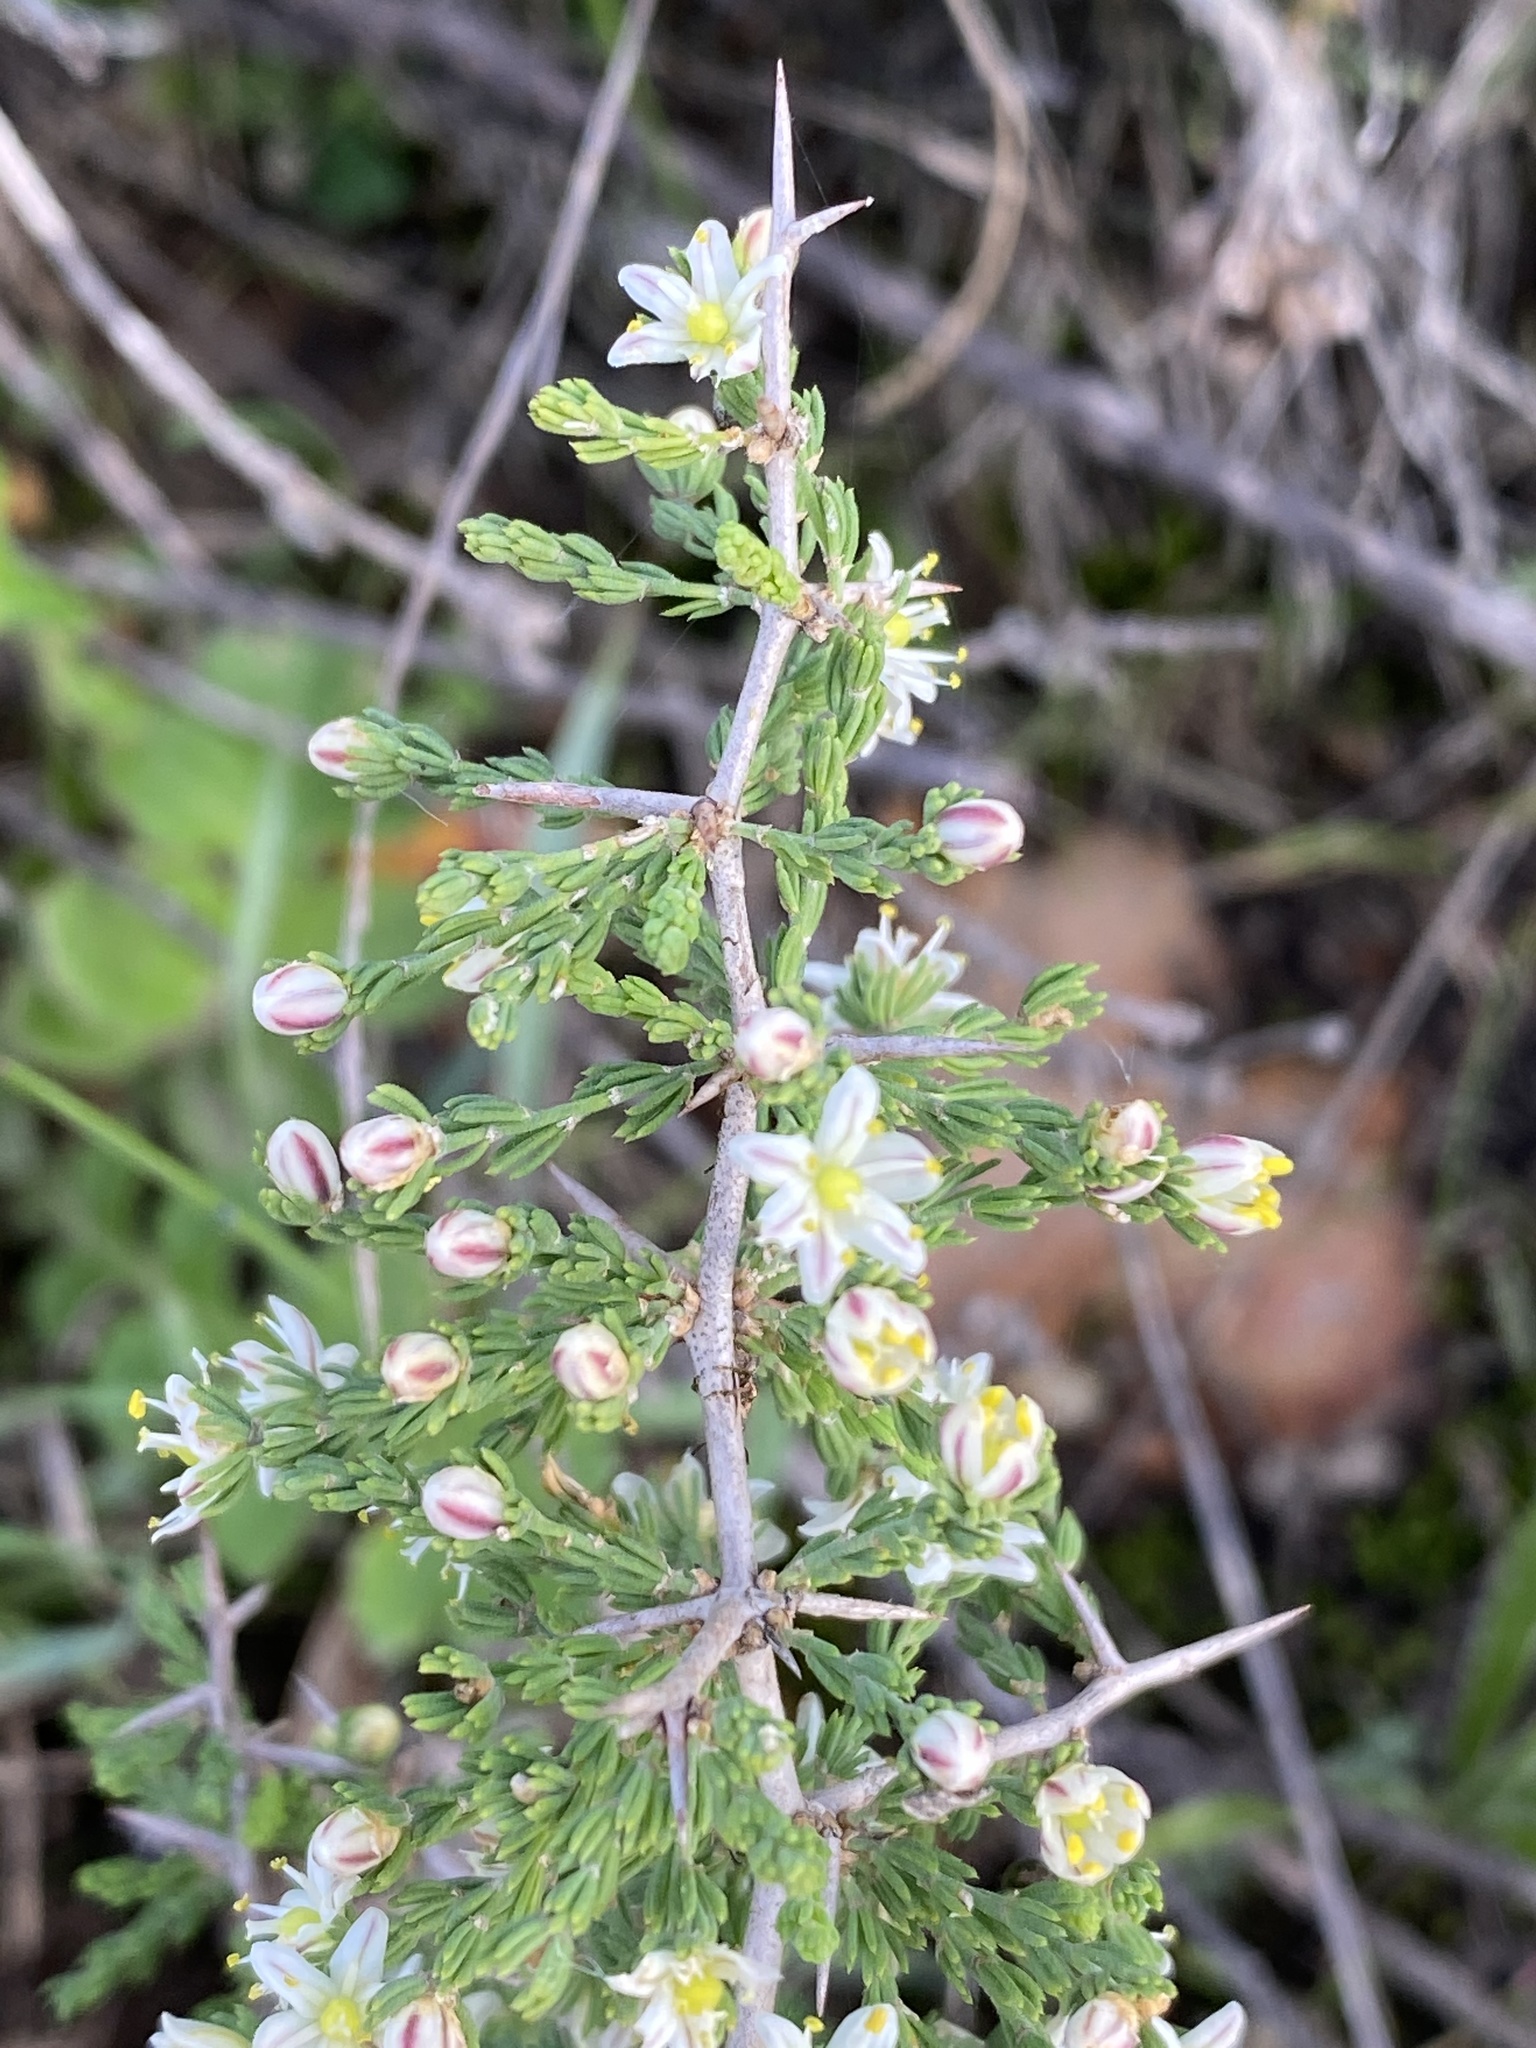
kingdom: Plantae
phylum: Tracheophyta
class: Liliopsida
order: Asparagales
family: Asparagaceae
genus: Asparagus
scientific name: Asparagus capensis
